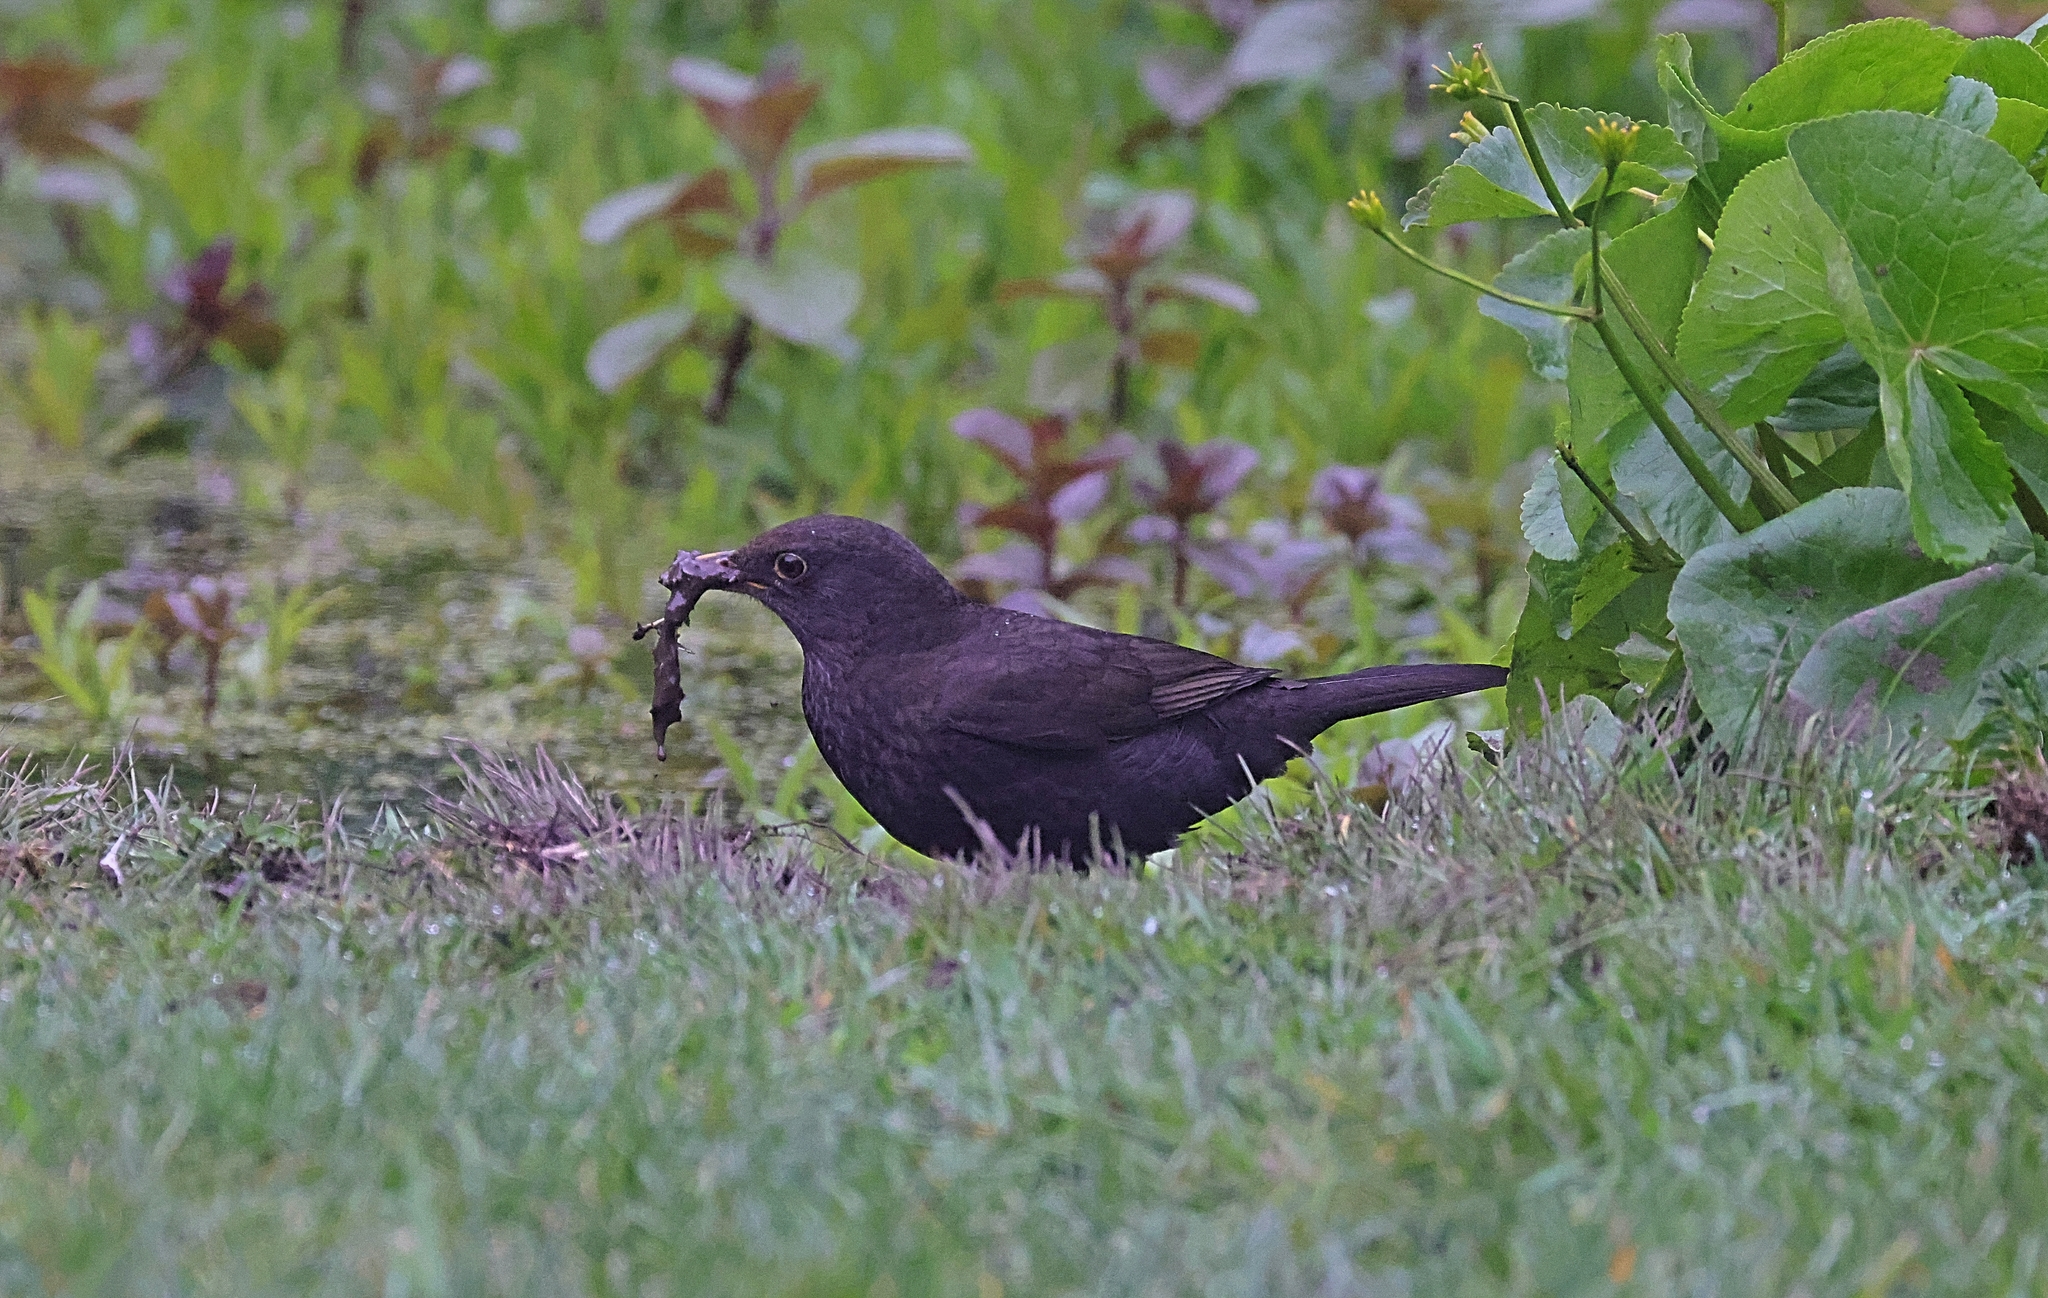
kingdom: Animalia
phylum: Chordata
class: Aves
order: Passeriformes
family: Turdidae
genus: Turdus
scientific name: Turdus merula
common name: Common blackbird
